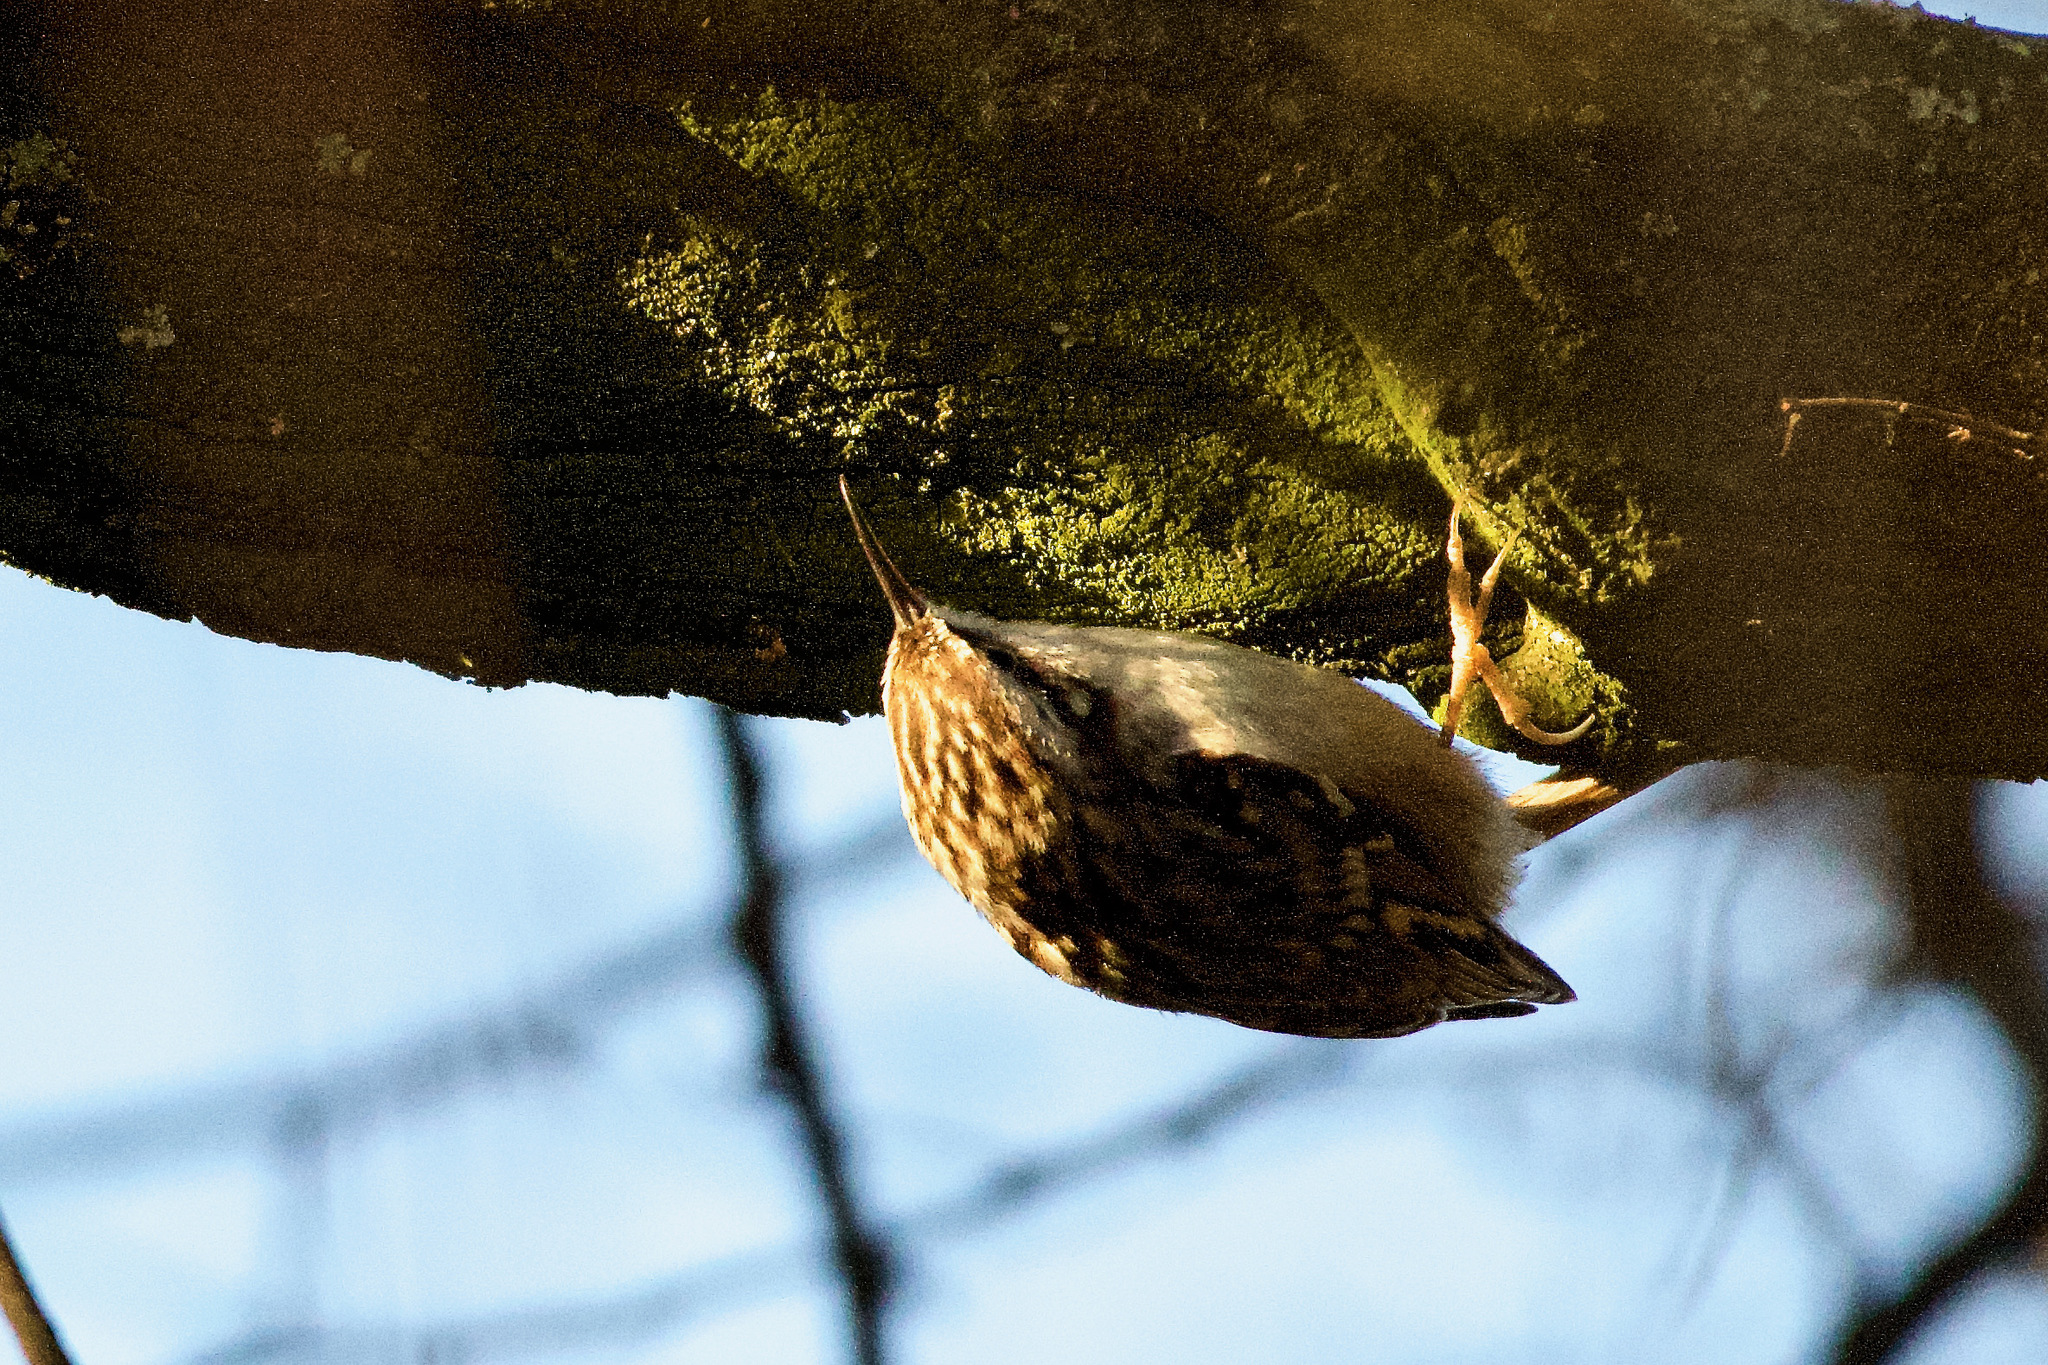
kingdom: Animalia
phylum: Chordata
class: Aves
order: Passeriformes
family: Certhiidae
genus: Certhia
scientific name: Certhia brachydactyla
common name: Short-toed treecreeper
